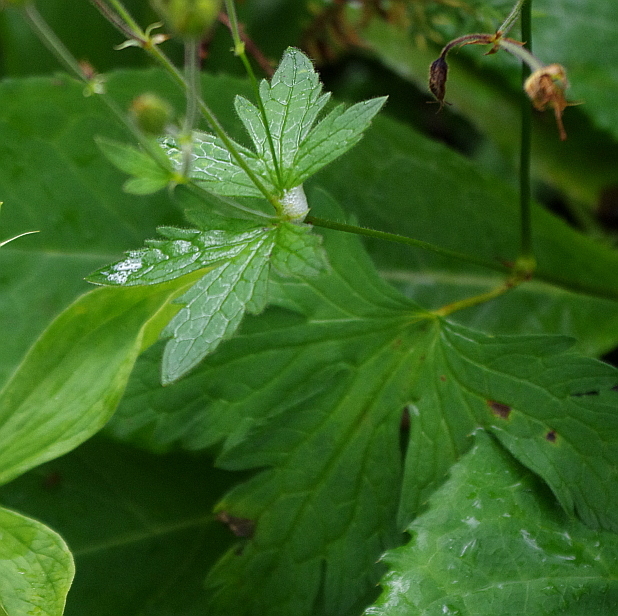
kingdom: Plantae
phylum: Tracheophyta
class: Magnoliopsida
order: Geraniales
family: Geraniaceae
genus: Geranium
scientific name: Geranium sylvaticum
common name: Wood crane's-bill
